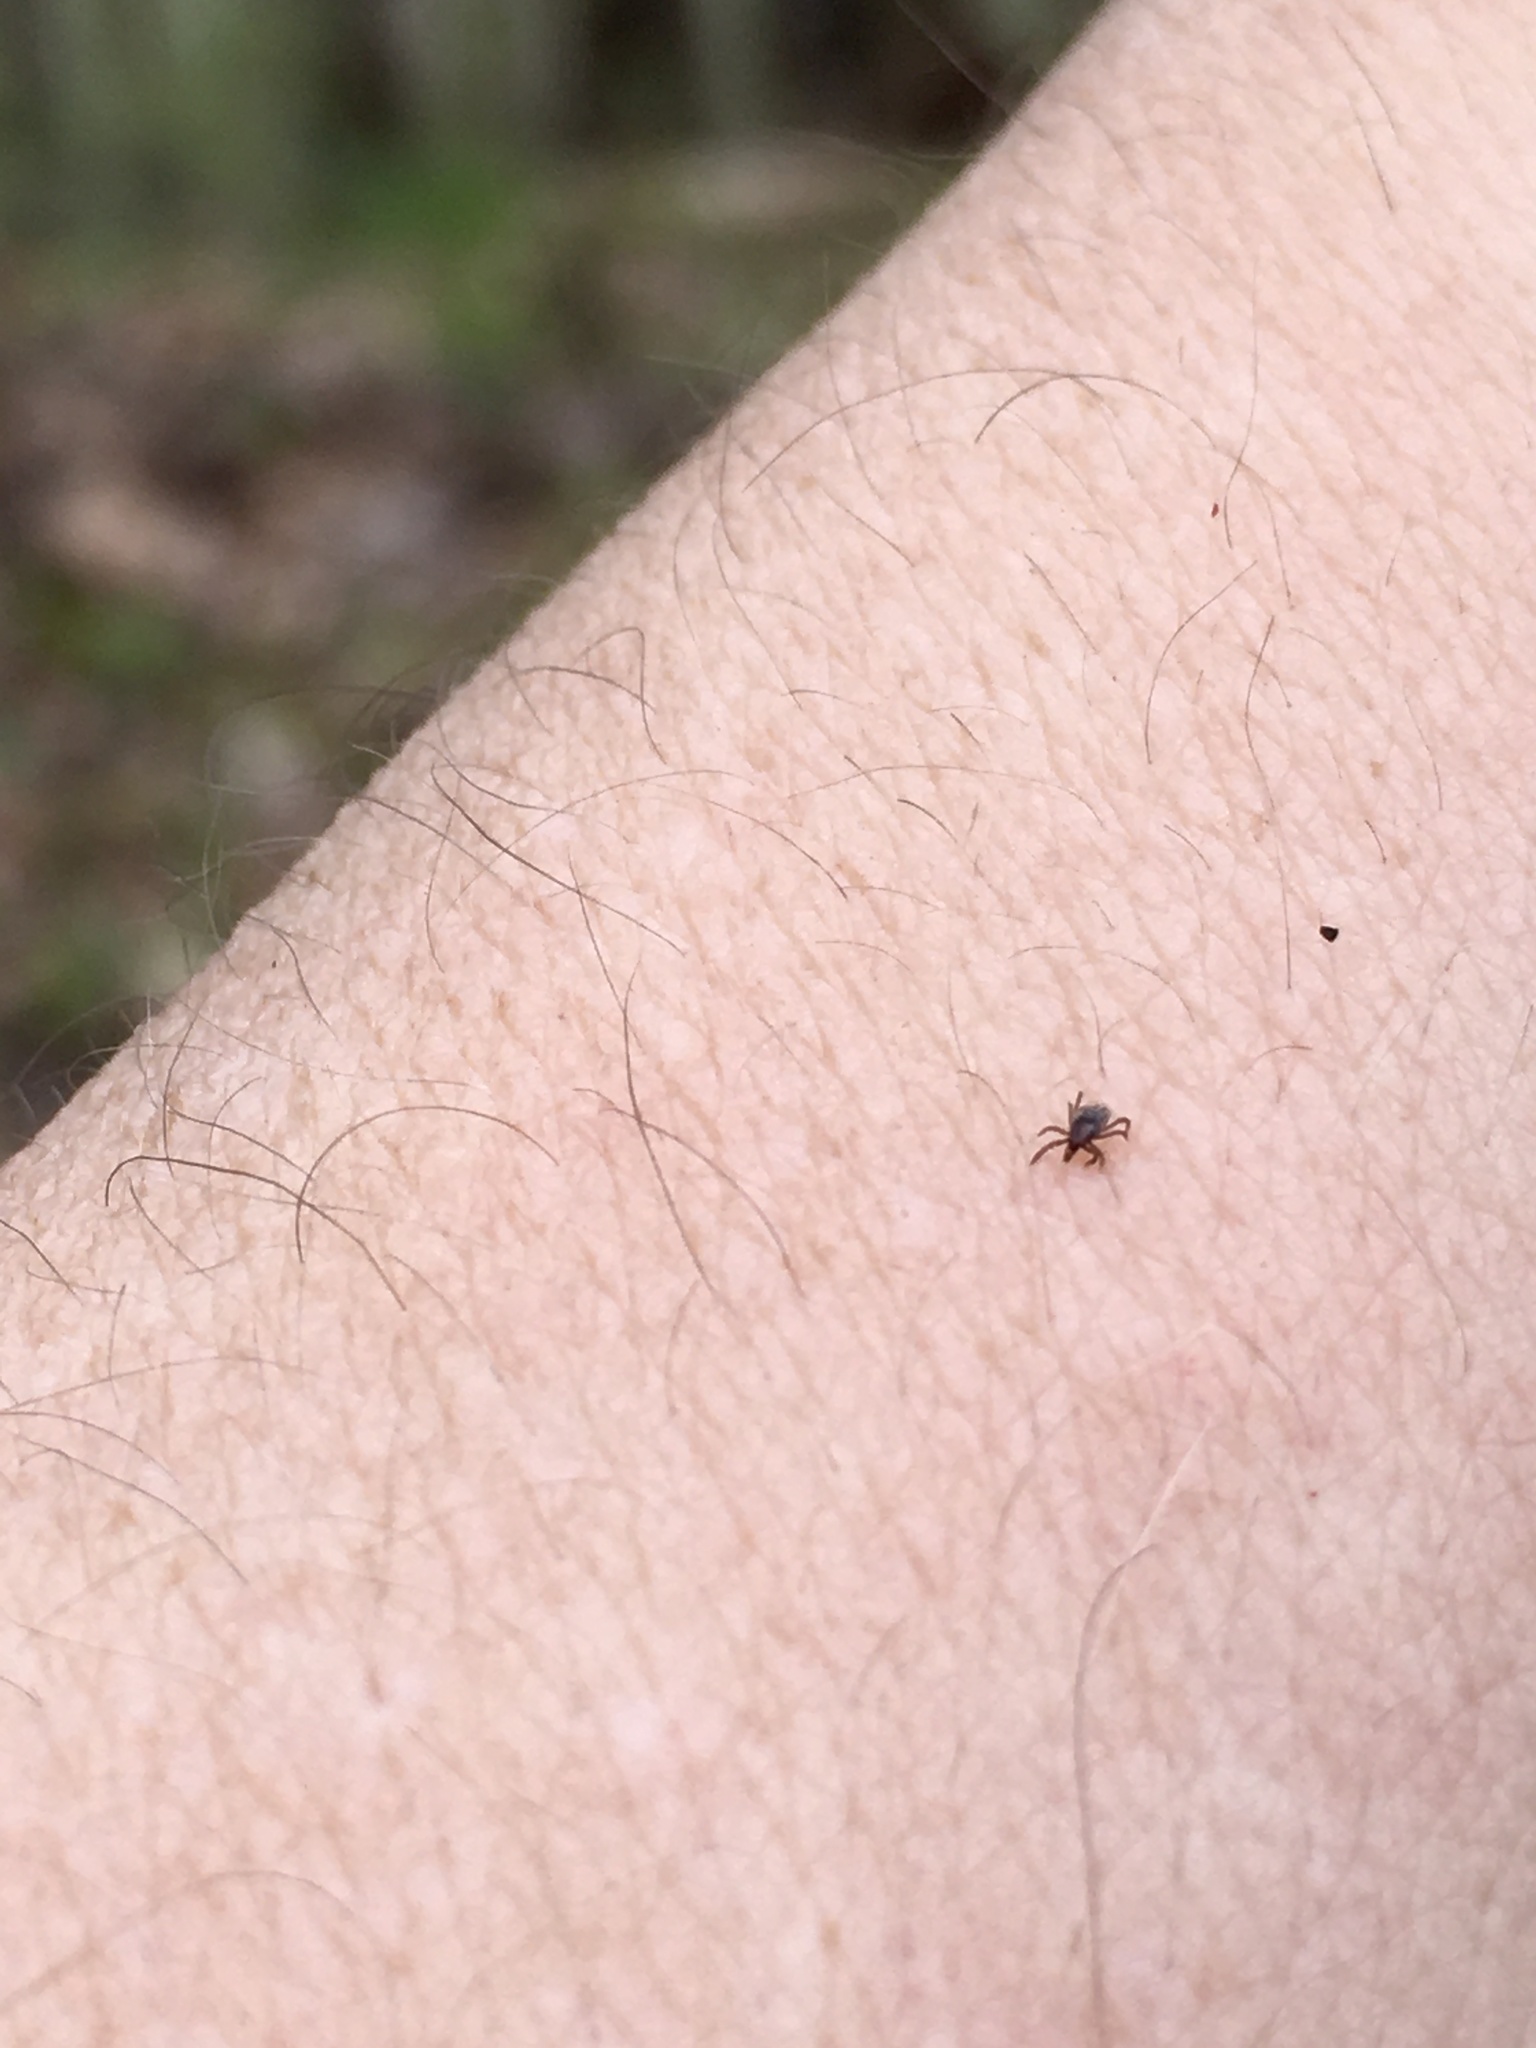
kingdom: Animalia
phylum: Arthropoda
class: Arachnida
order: Ixodida
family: Ixodidae
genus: Ixodes
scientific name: Ixodes scapularis
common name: Black legged tick
